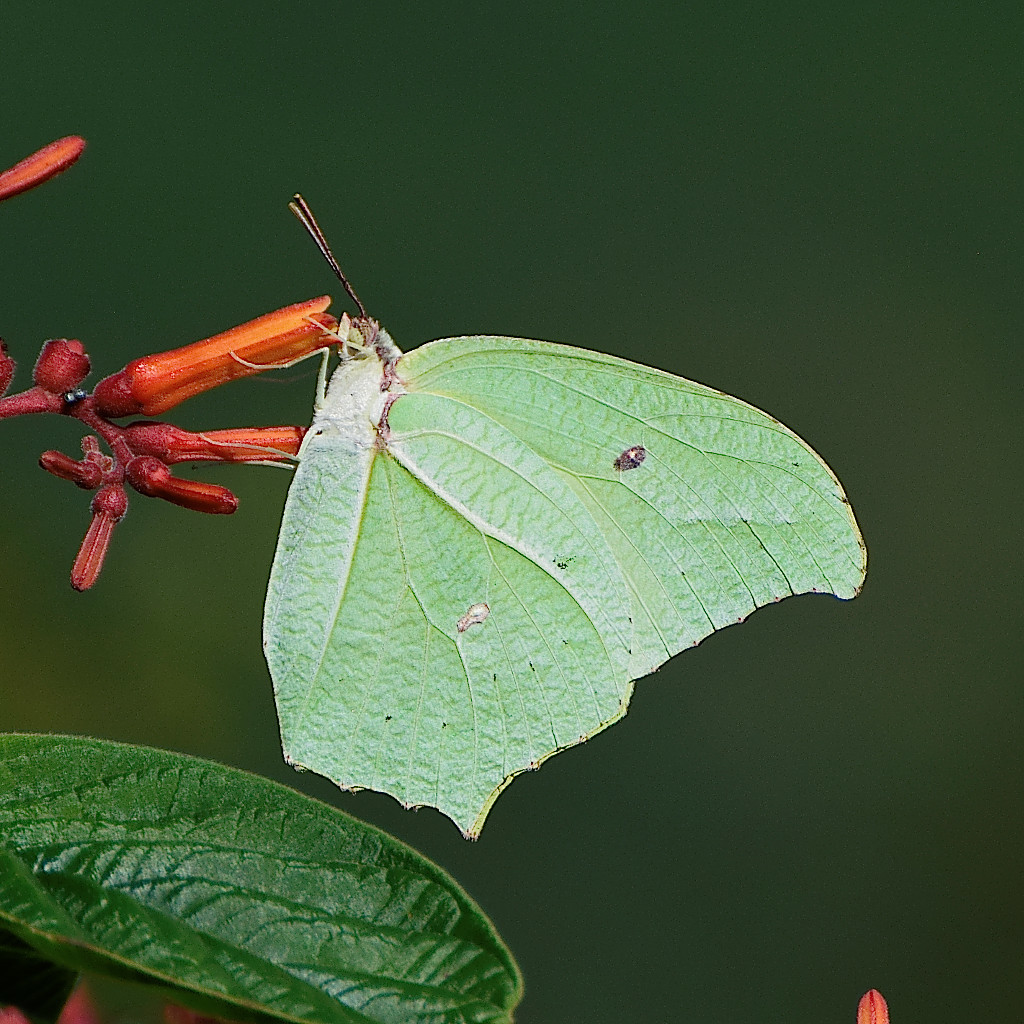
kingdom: Animalia
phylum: Arthropoda
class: Insecta
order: Lepidoptera
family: Pieridae
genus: Anteos
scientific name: Anteos maerula
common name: Angled sulphur
